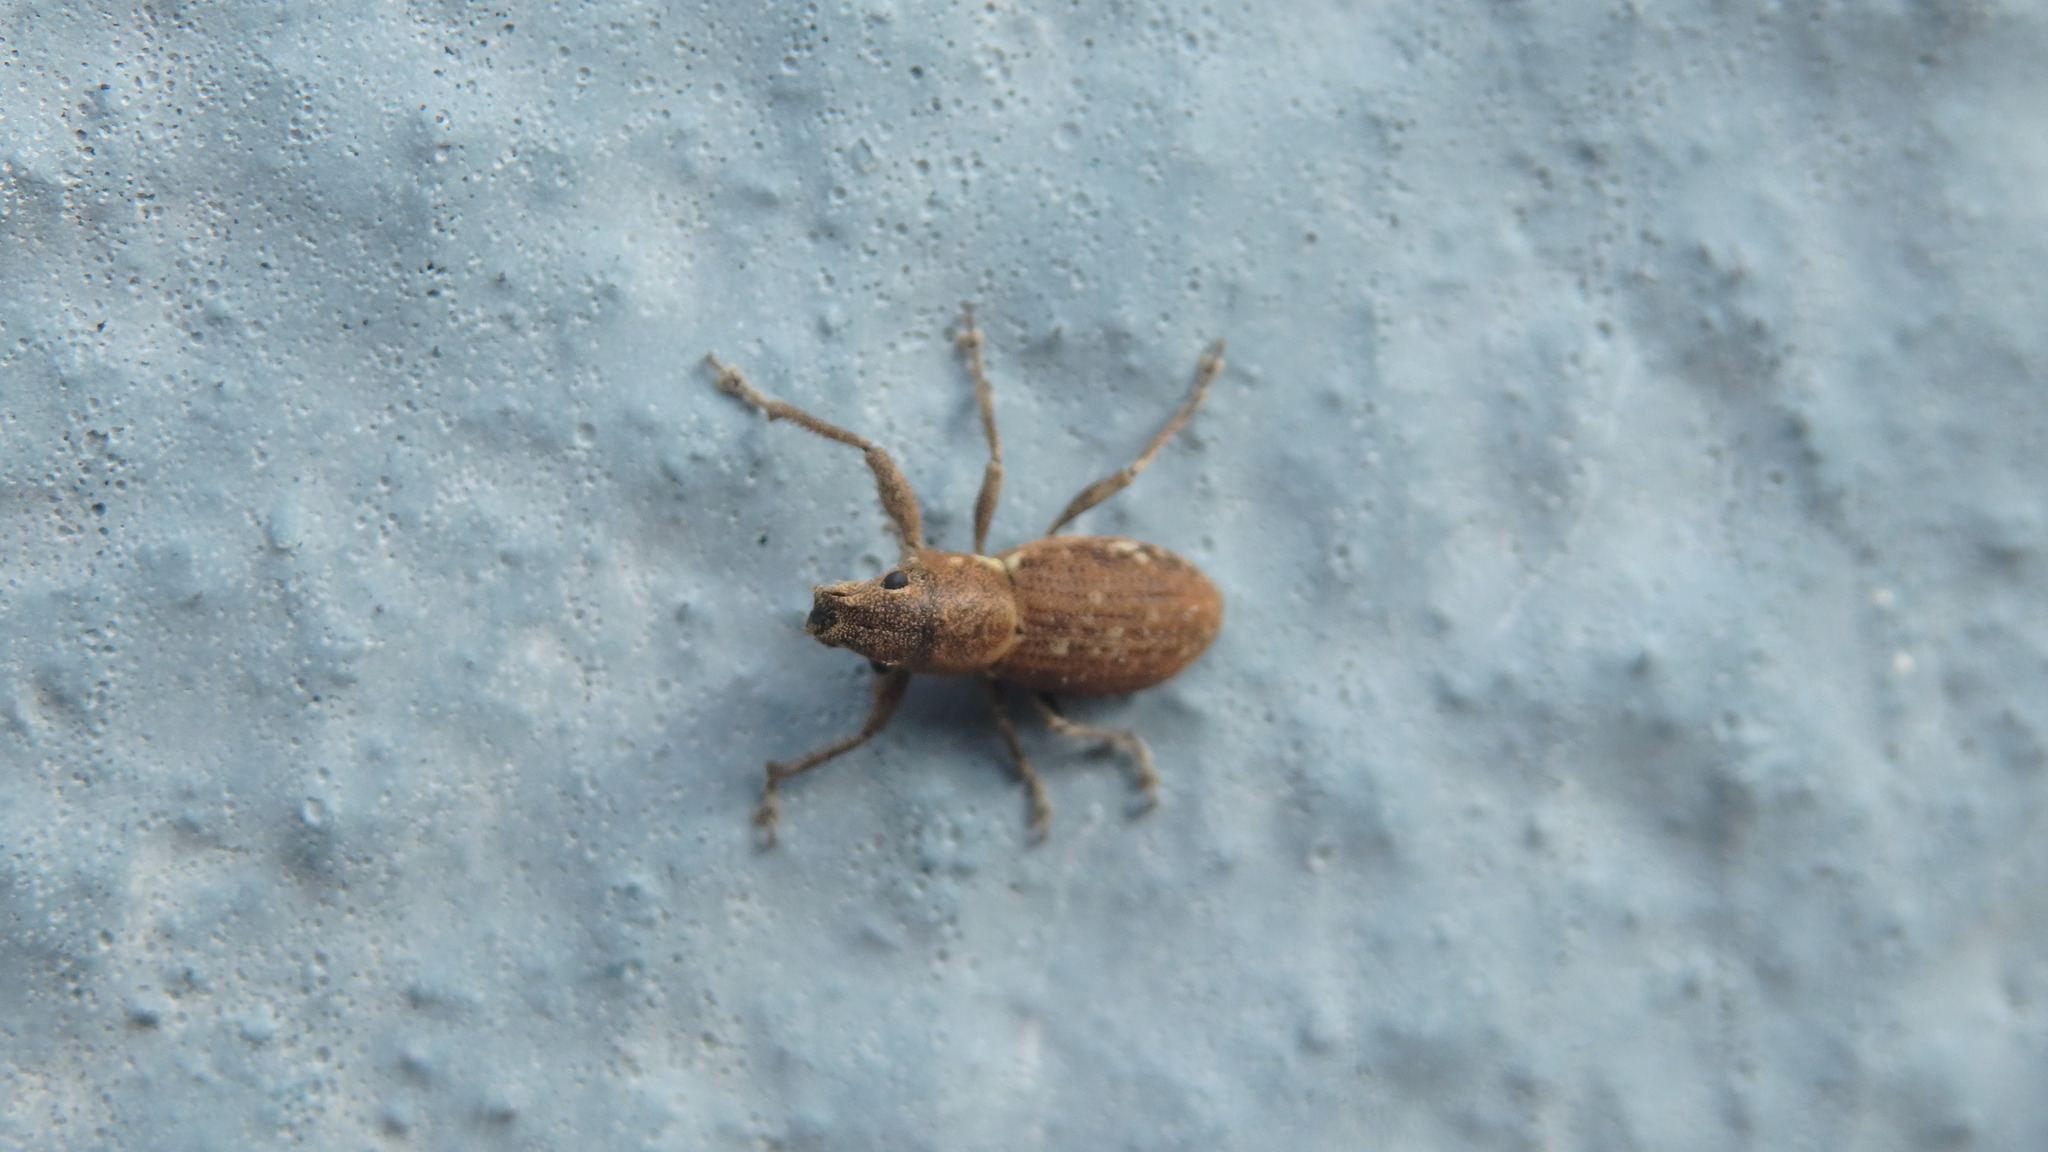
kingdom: Animalia
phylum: Arthropoda
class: Insecta
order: Coleoptera
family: Curculionidae
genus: Naupactus
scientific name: Naupactus cervinus
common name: Fuller rose beetle
